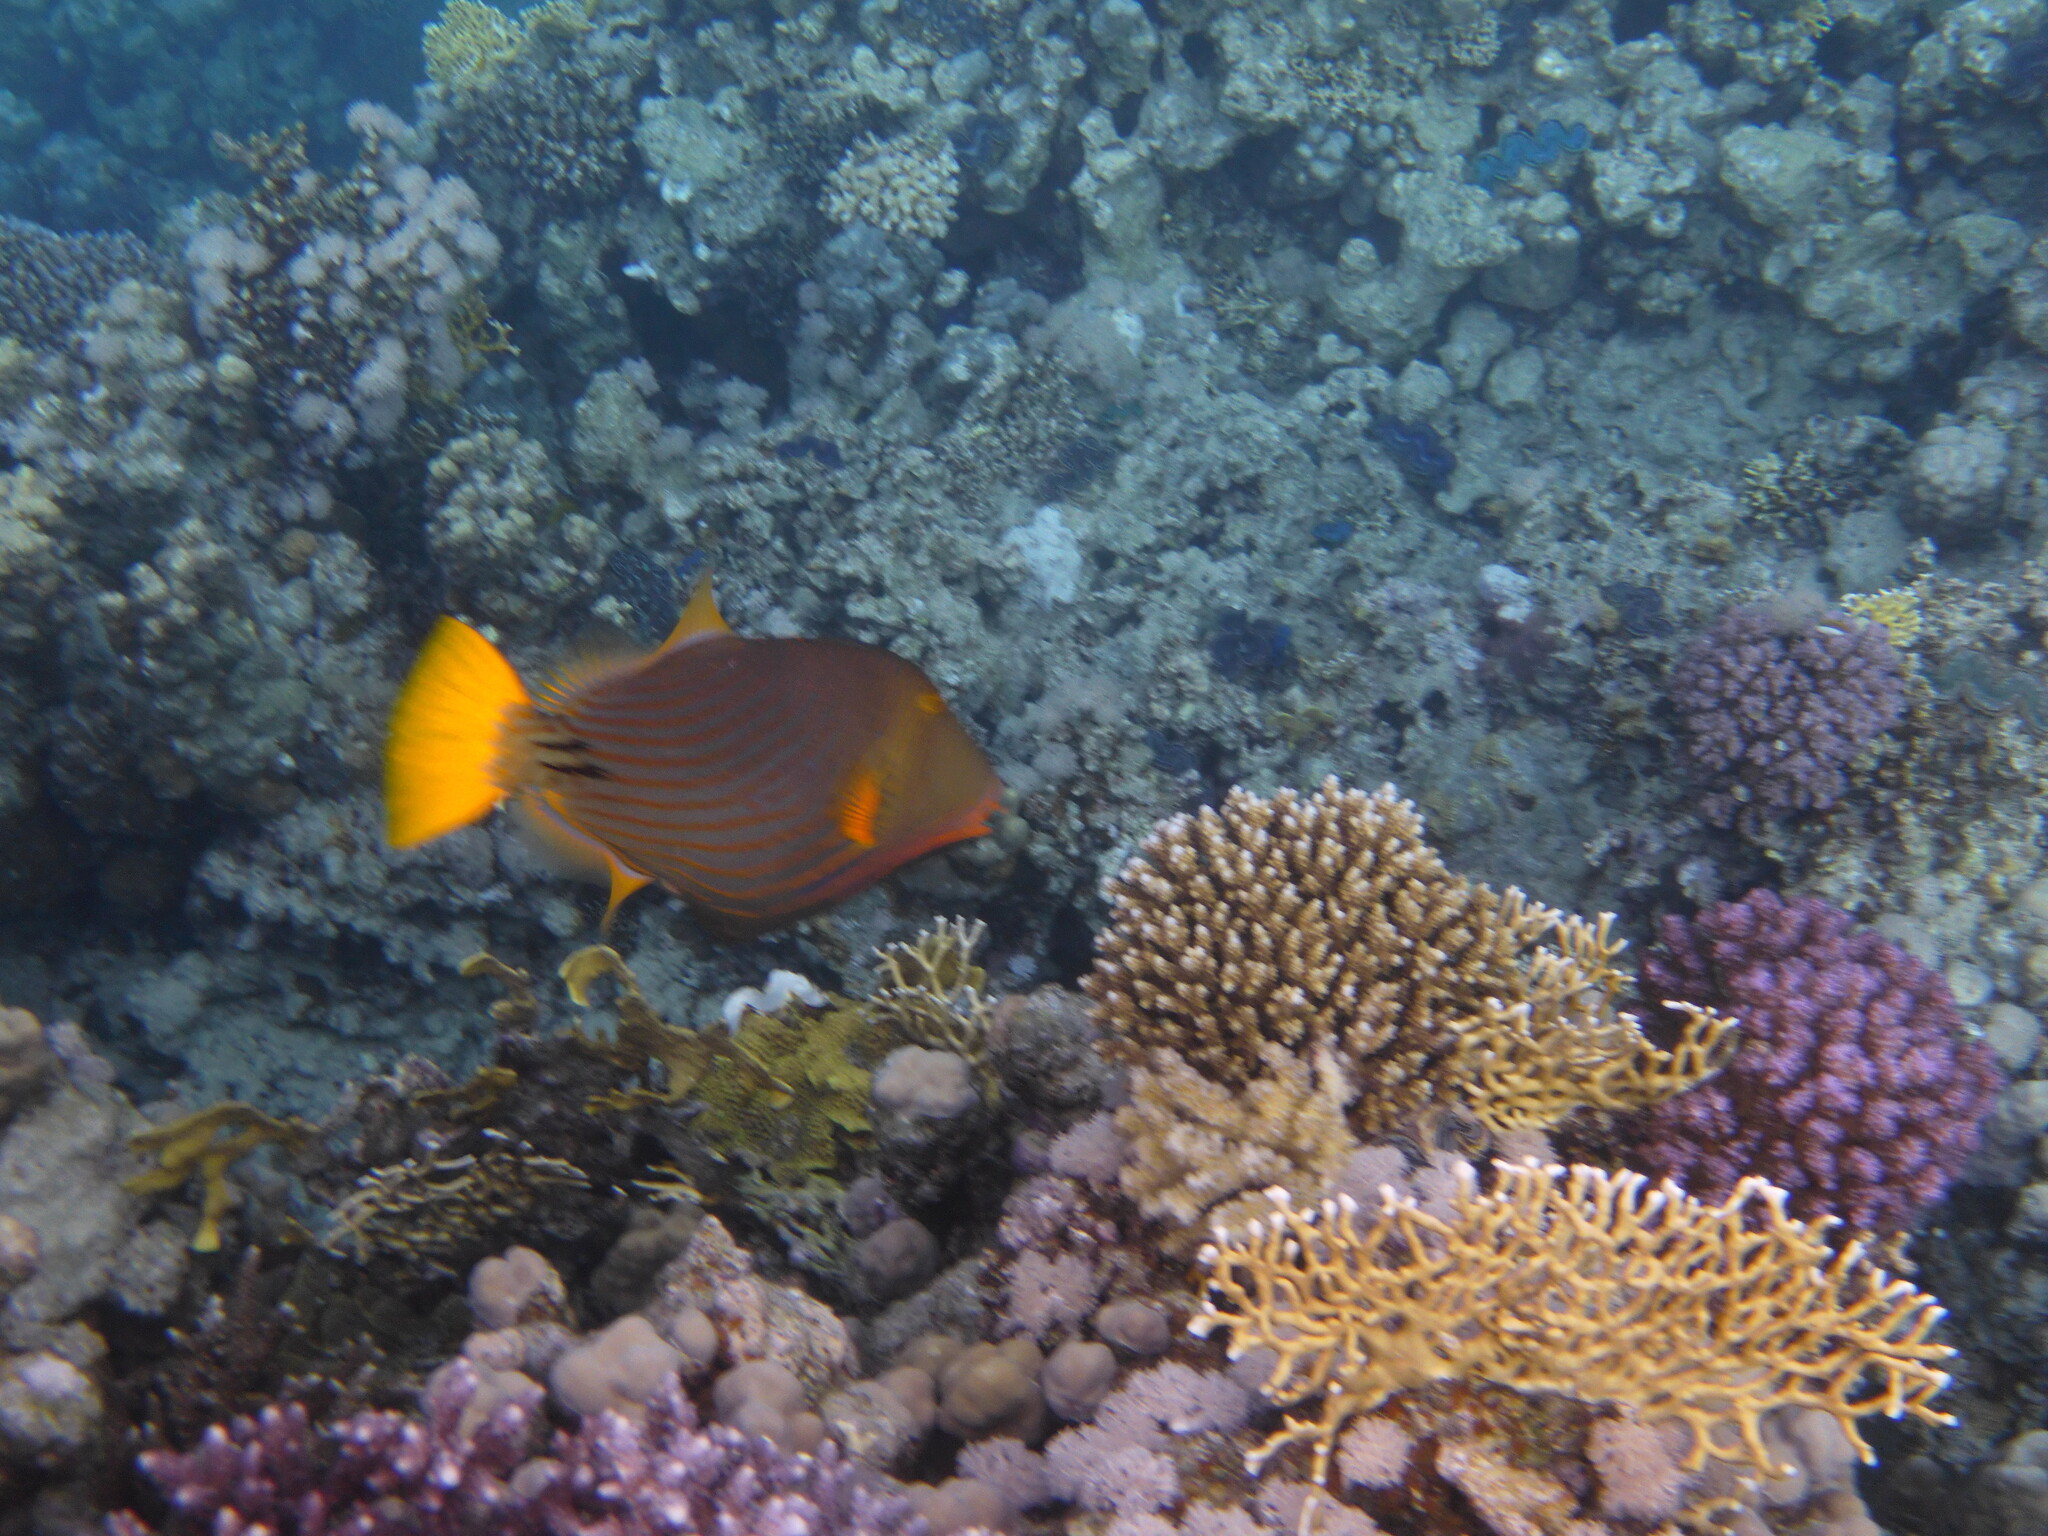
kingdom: Animalia
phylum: Chordata
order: Tetraodontiformes
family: Balistidae
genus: Balistapus
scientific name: Balistapus undulatus
